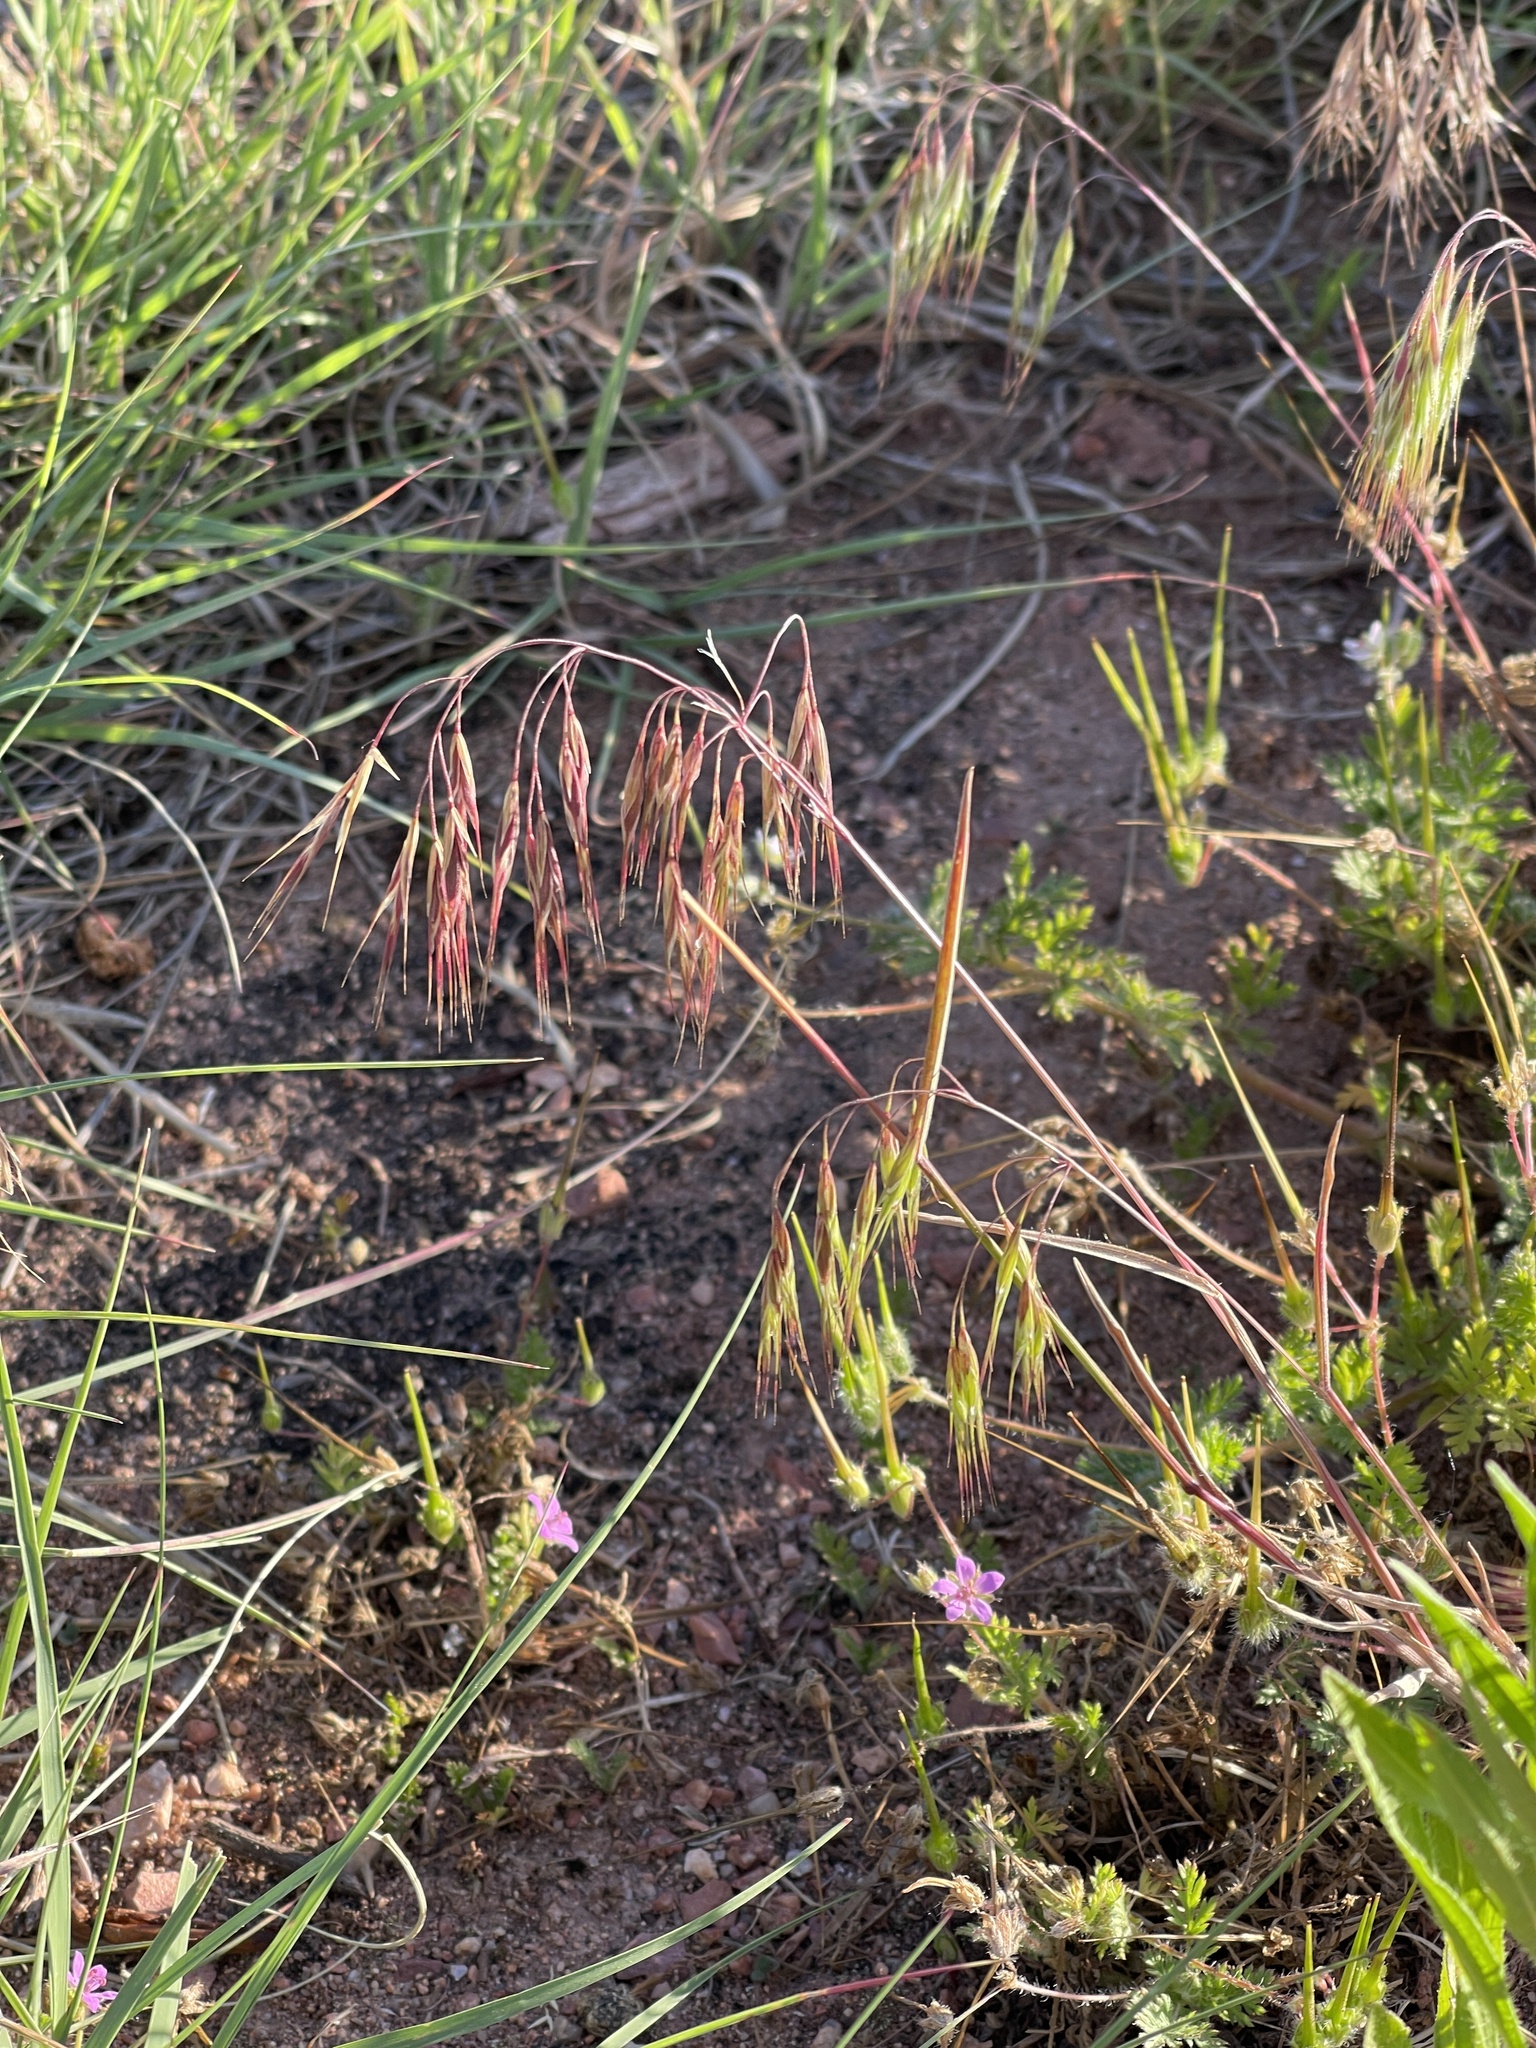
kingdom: Plantae
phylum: Tracheophyta
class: Liliopsida
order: Poales
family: Poaceae
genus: Bromus
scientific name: Bromus tectorum
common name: Cheatgrass
